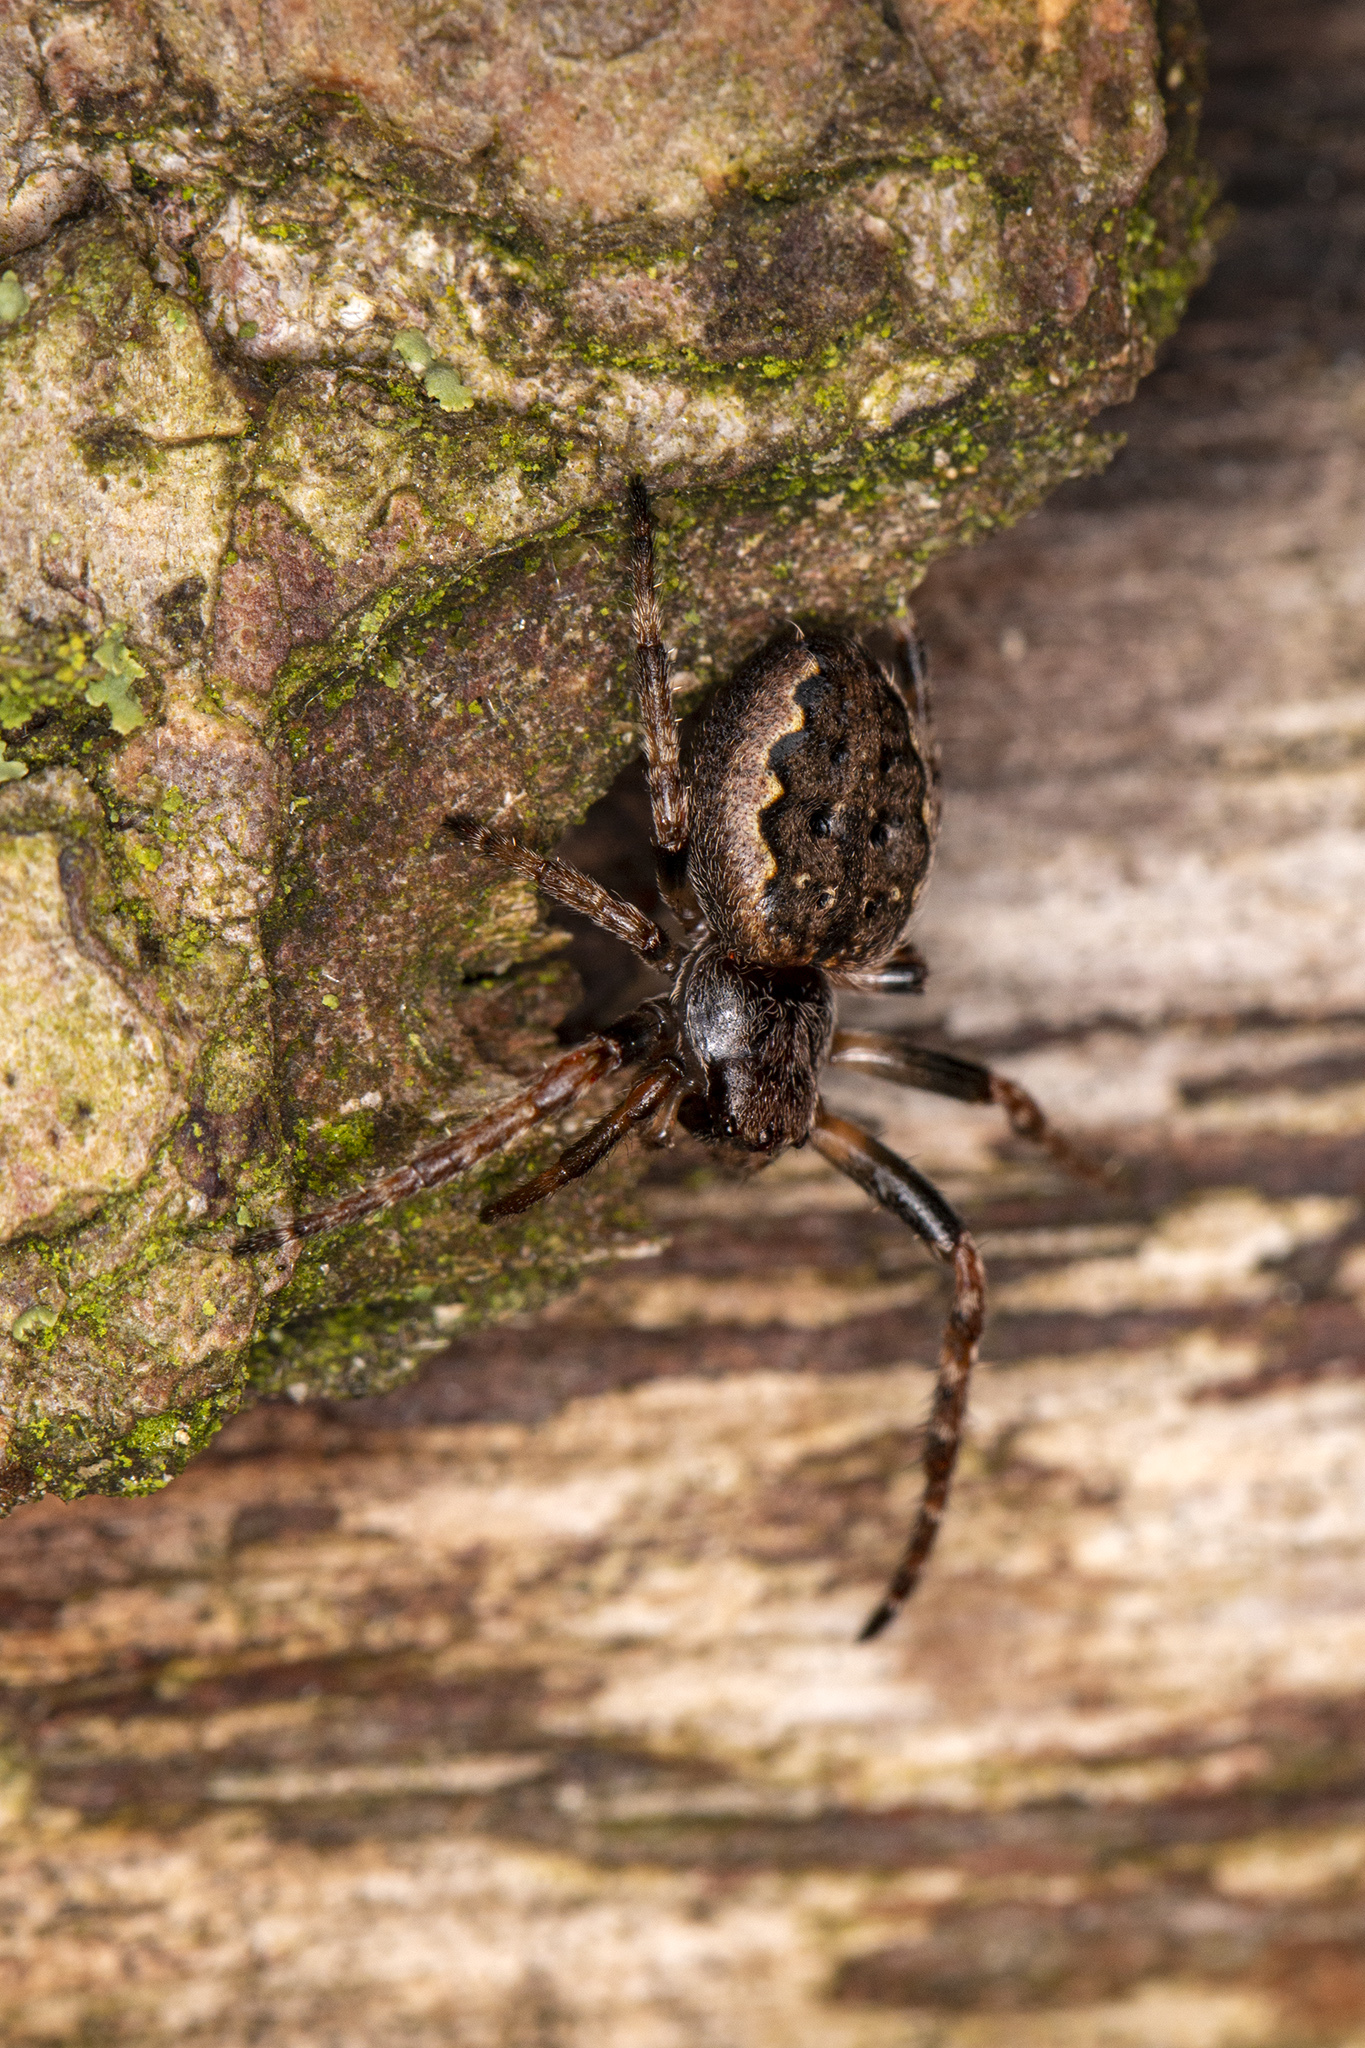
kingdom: Animalia
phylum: Arthropoda
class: Arachnida
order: Araneae
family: Araneidae
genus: Nuctenea
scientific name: Nuctenea umbratica
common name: Toad spider
